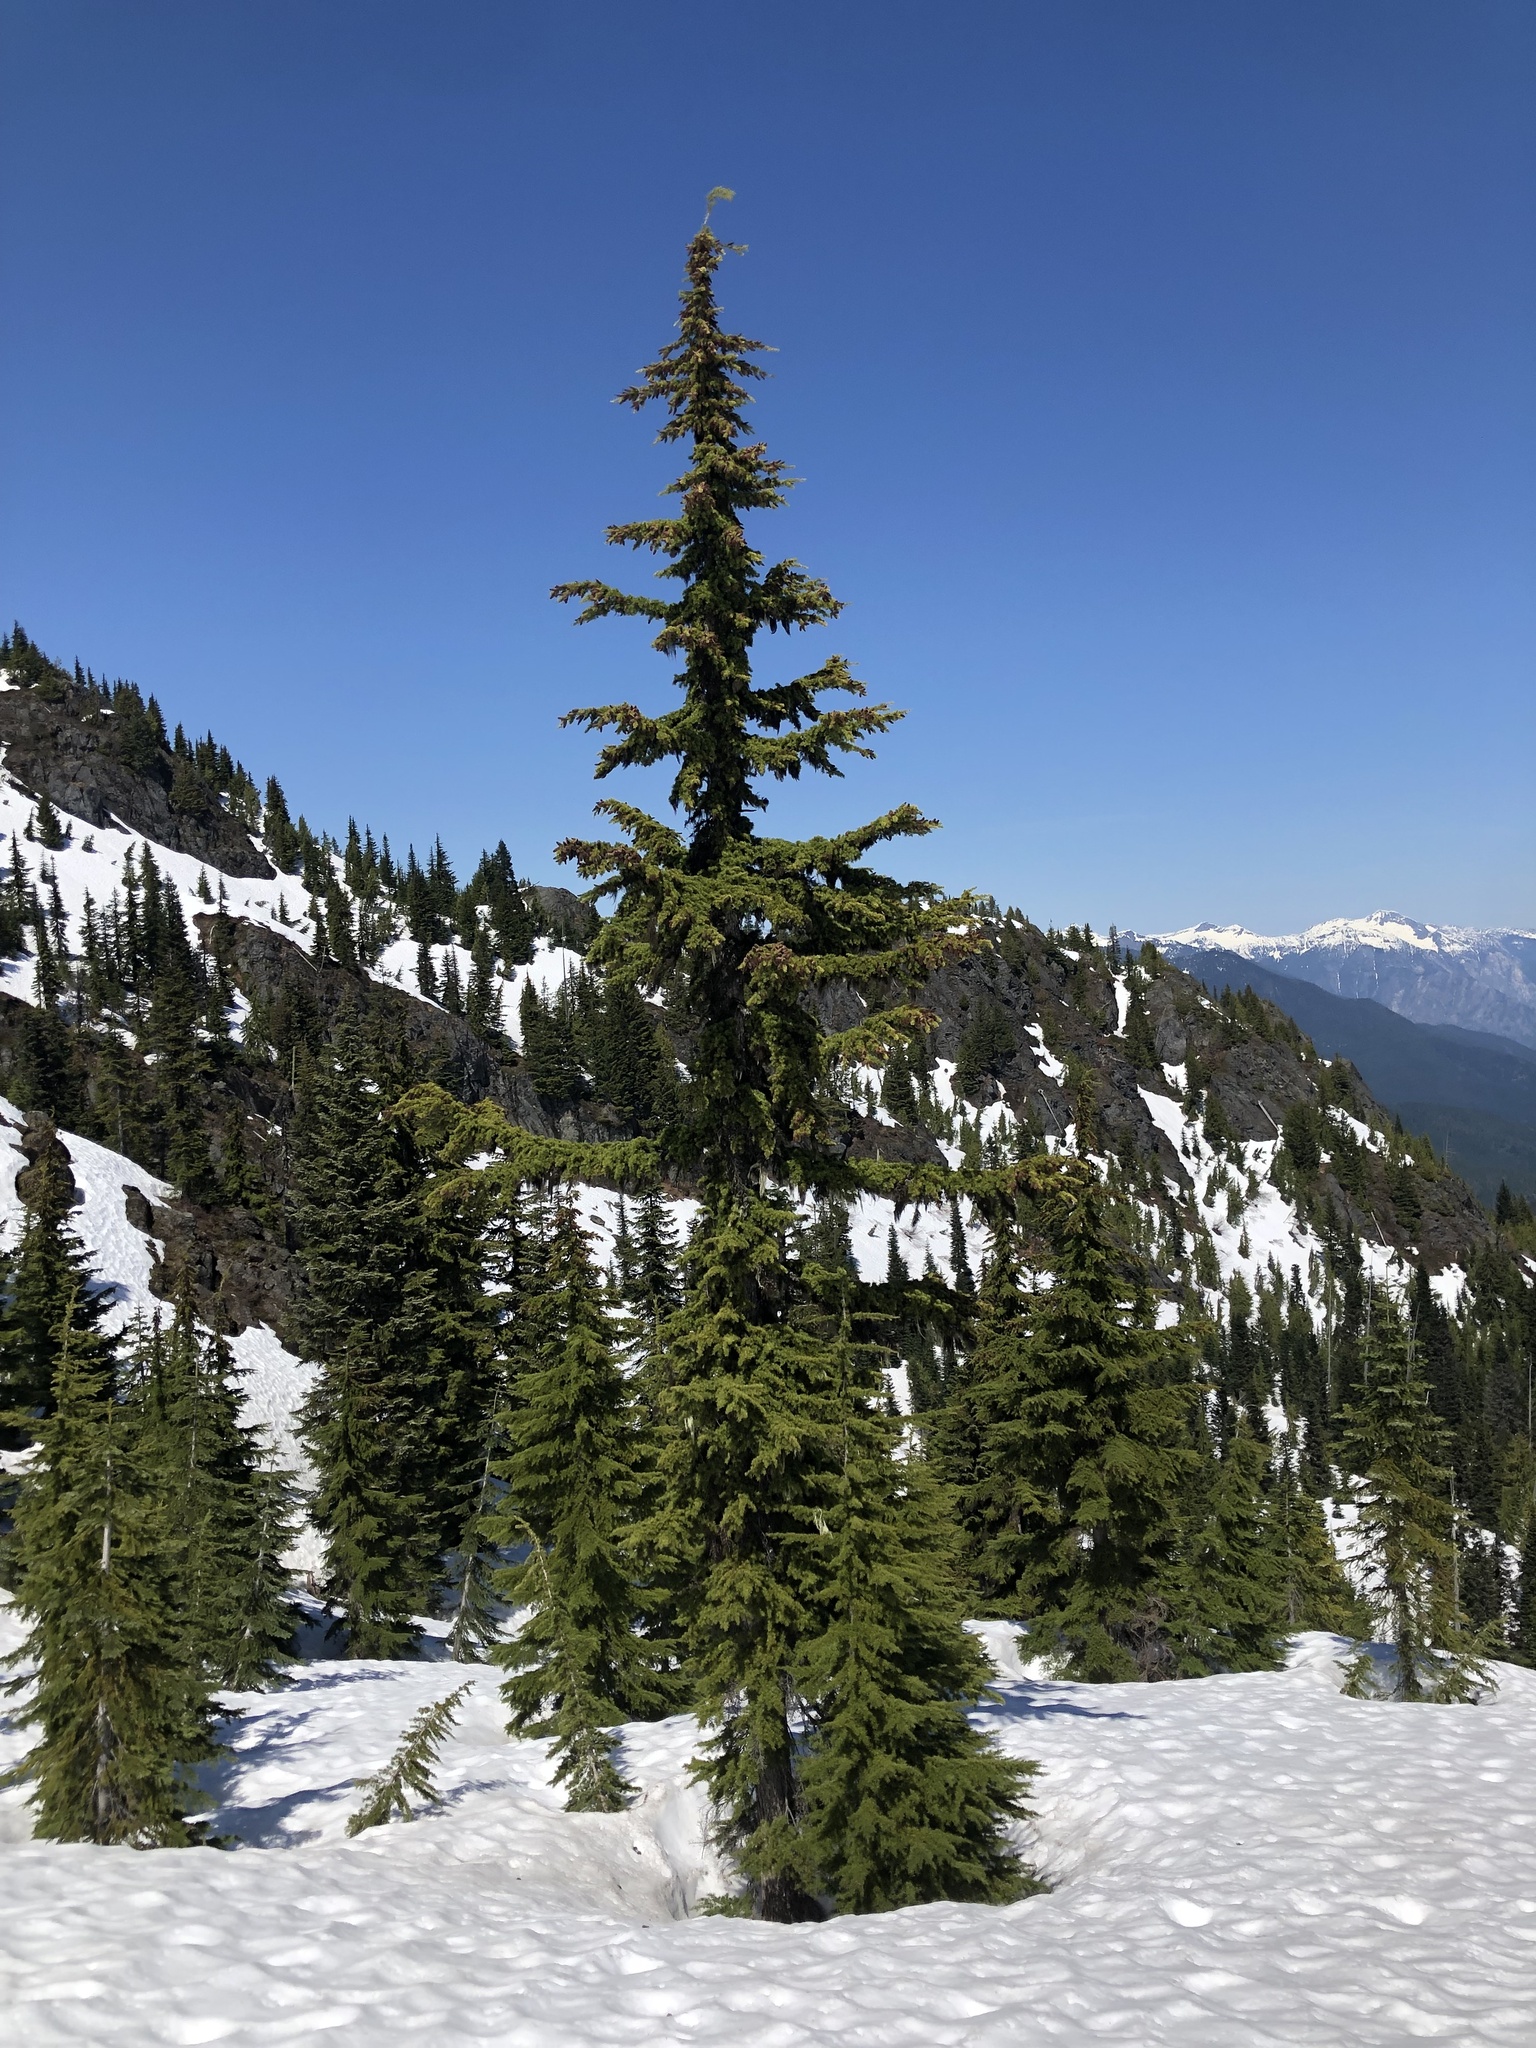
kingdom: Plantae
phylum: Tracheophyta
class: Pinopsida
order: Pinales
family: Pinaceae
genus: Tsuga
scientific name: Tsuga mertensiana
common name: Mountain hemlock
